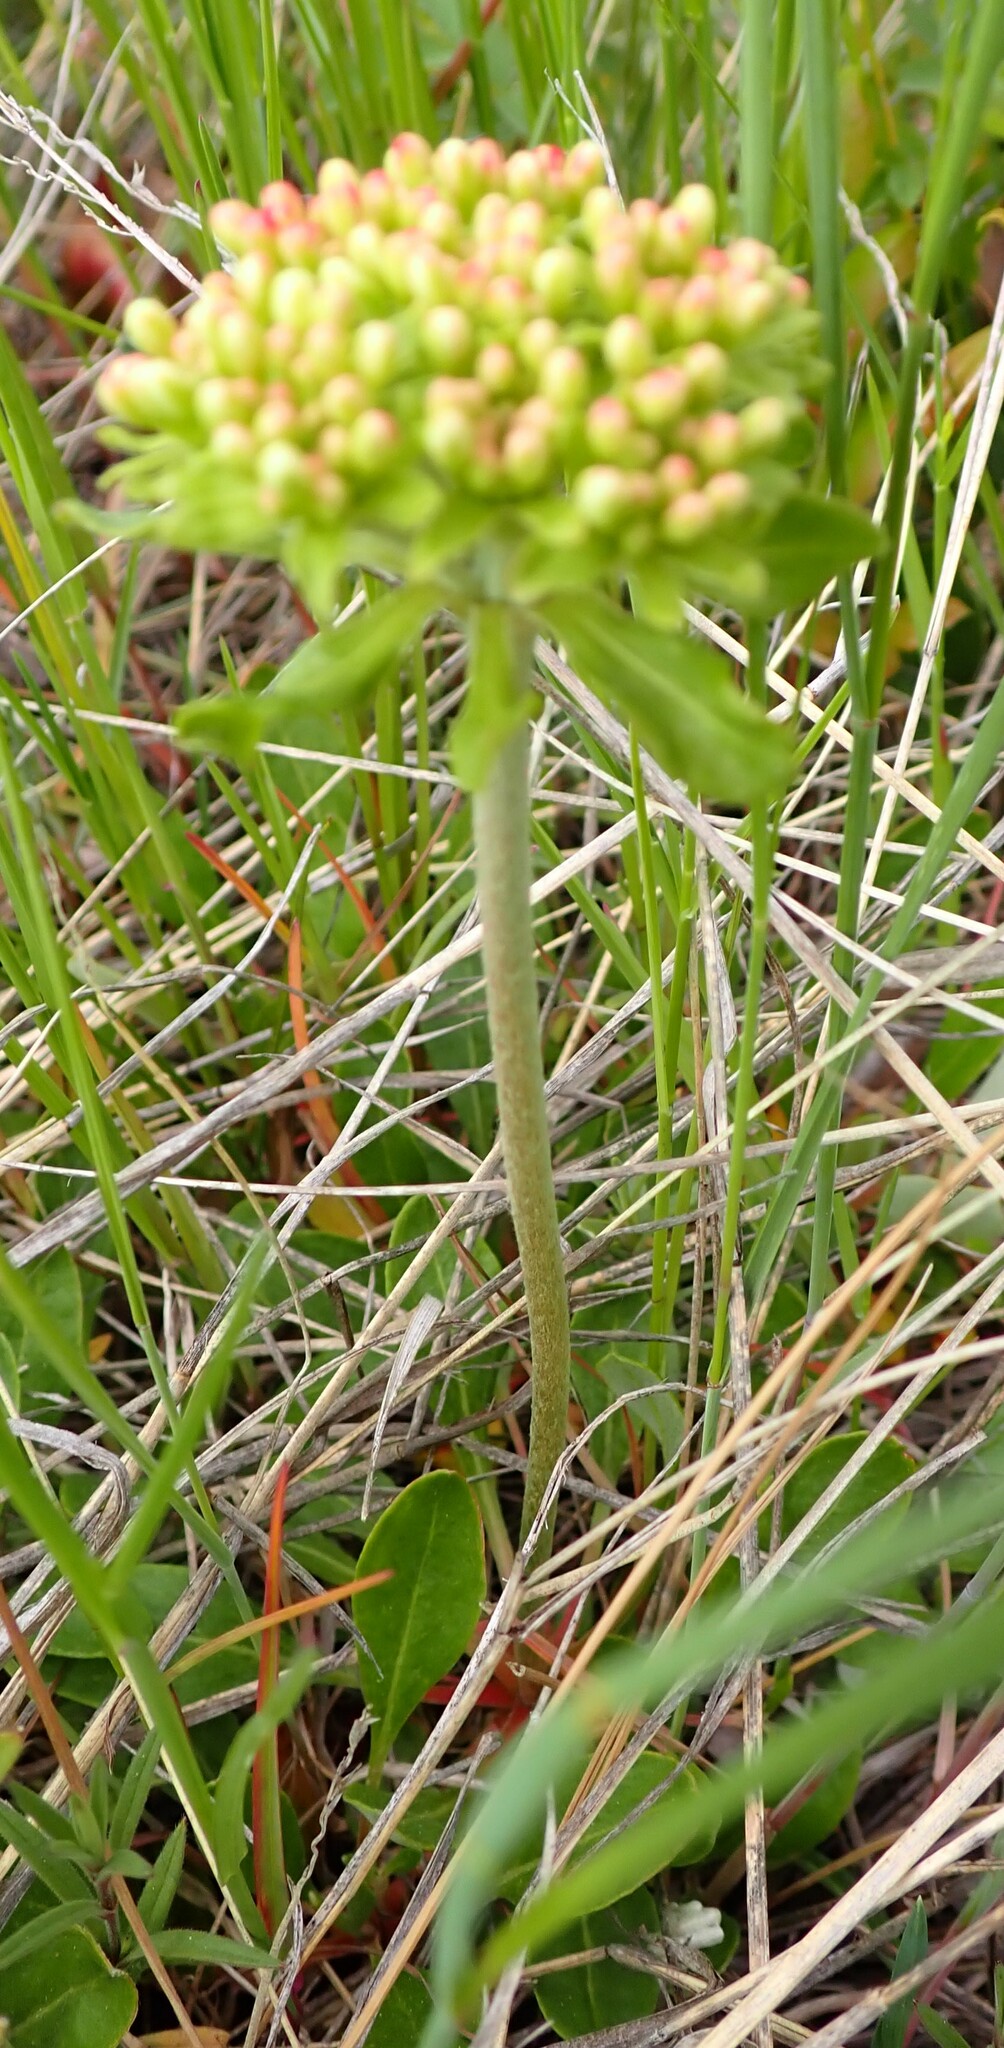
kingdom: Plantae
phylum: Tracheophyta
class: Magnoliopsida
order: Caryophyllales
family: Polygonaceae
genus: Eriogonum
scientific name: Eriogonum umbellatum
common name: Sulfur-buckwheat
